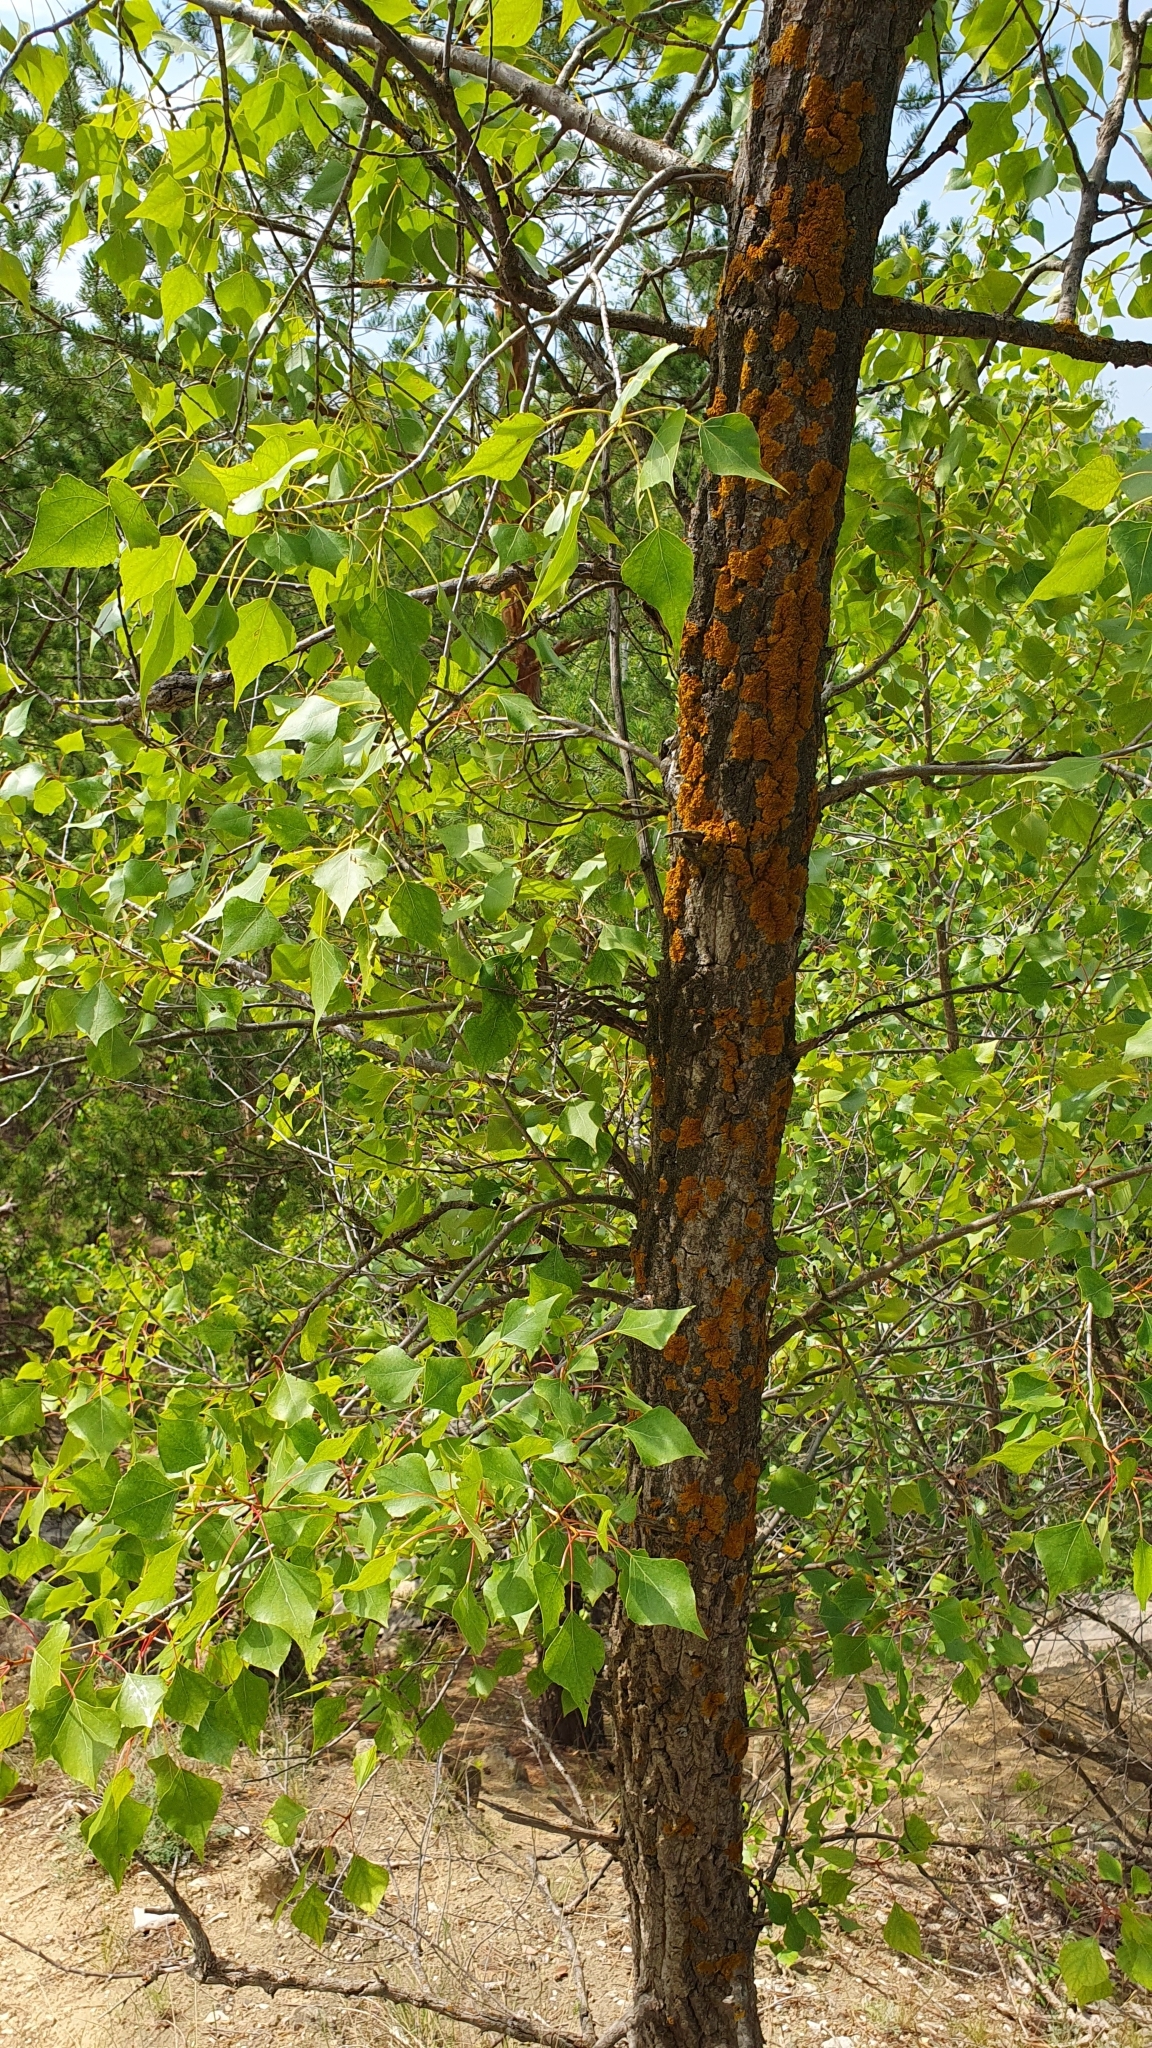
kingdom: Plantae
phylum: Tracheophyta
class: Magnoliopsida
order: Malpighiales
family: Salicaceae
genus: Populus
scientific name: Populus nigra
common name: Black poplar
